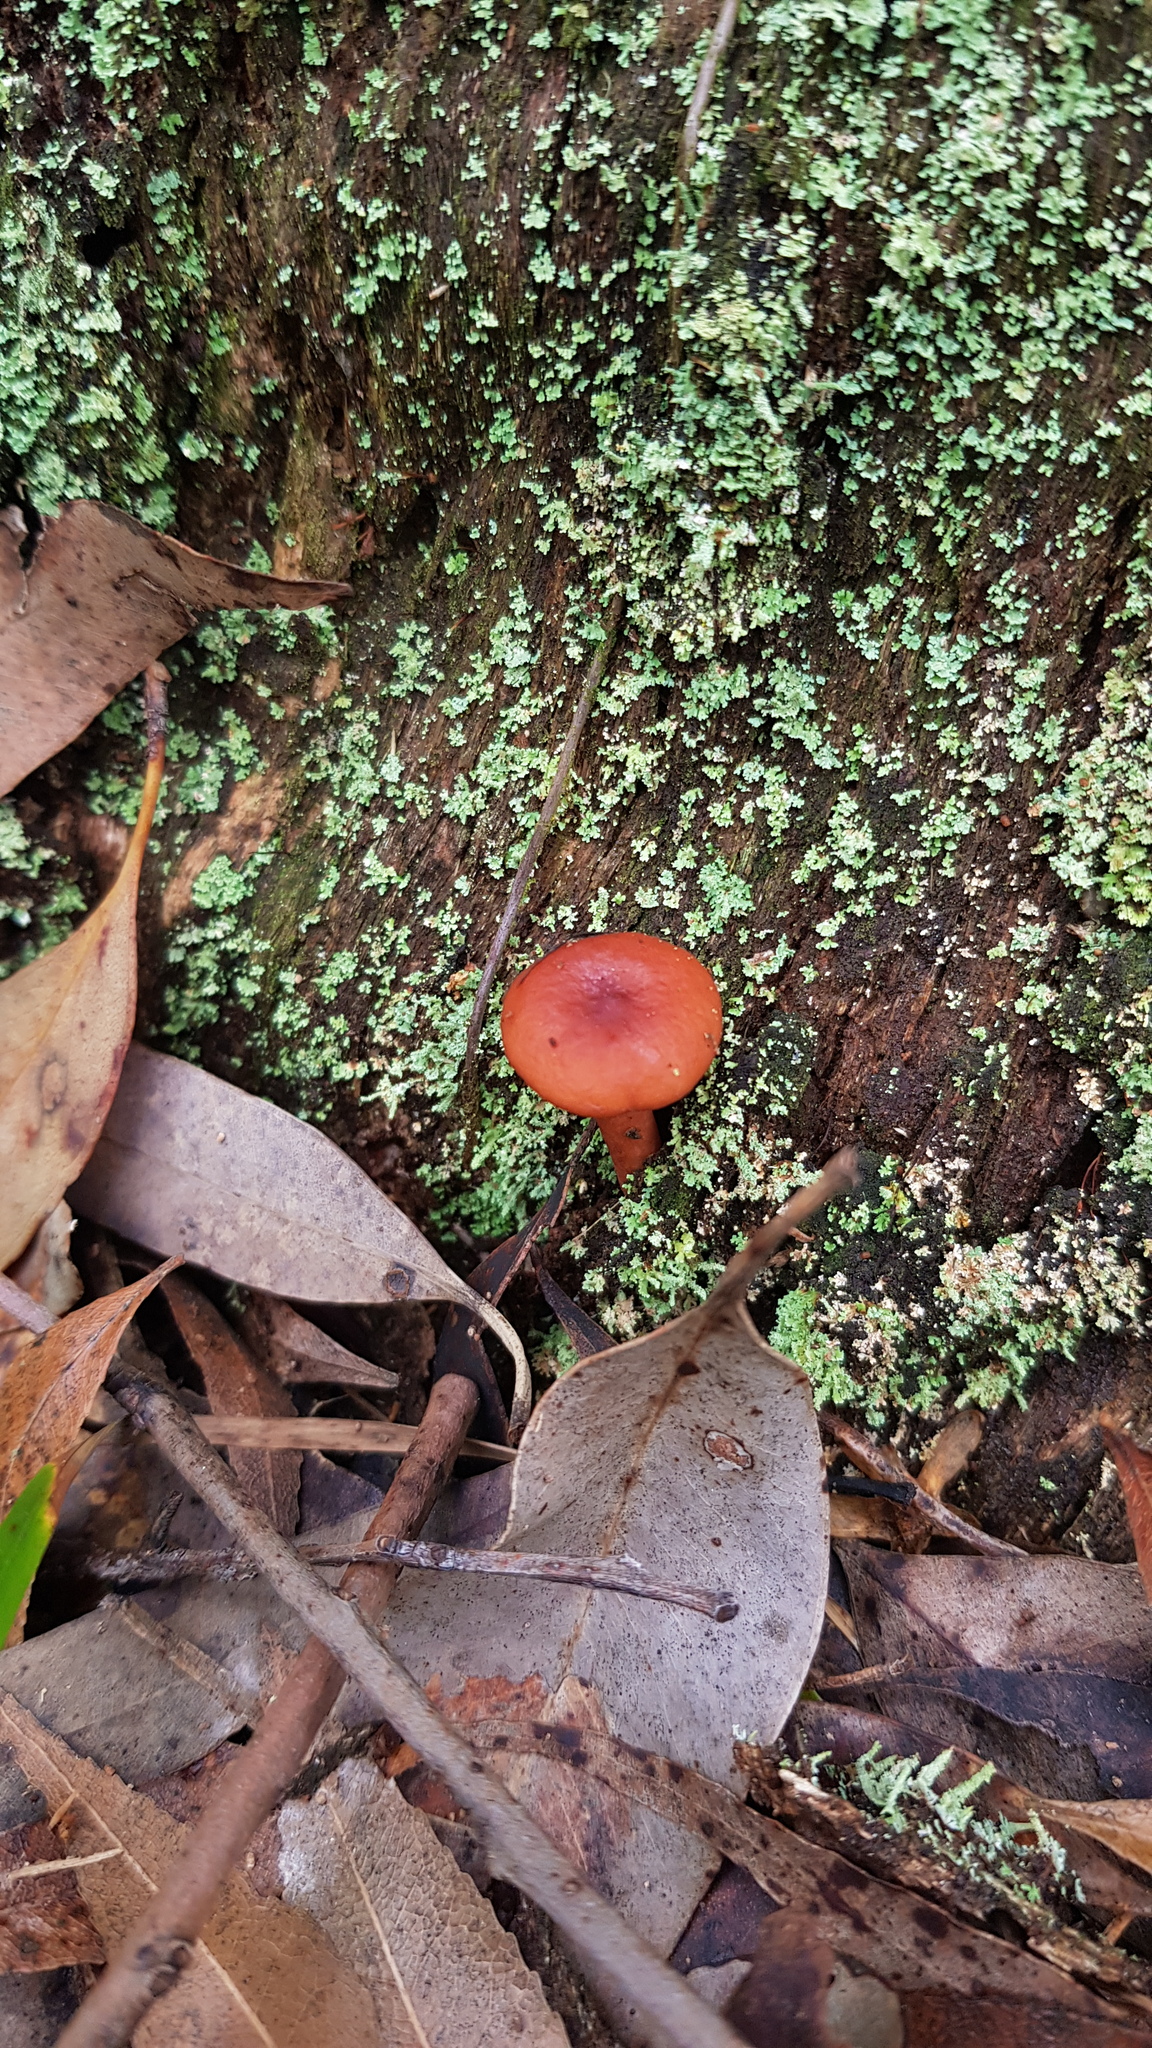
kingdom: Fungi
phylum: Basidiomycota
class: Agaricomycetes
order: Russulales
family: Russulaceae
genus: Lactarius
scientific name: Lactarius eucalypti
